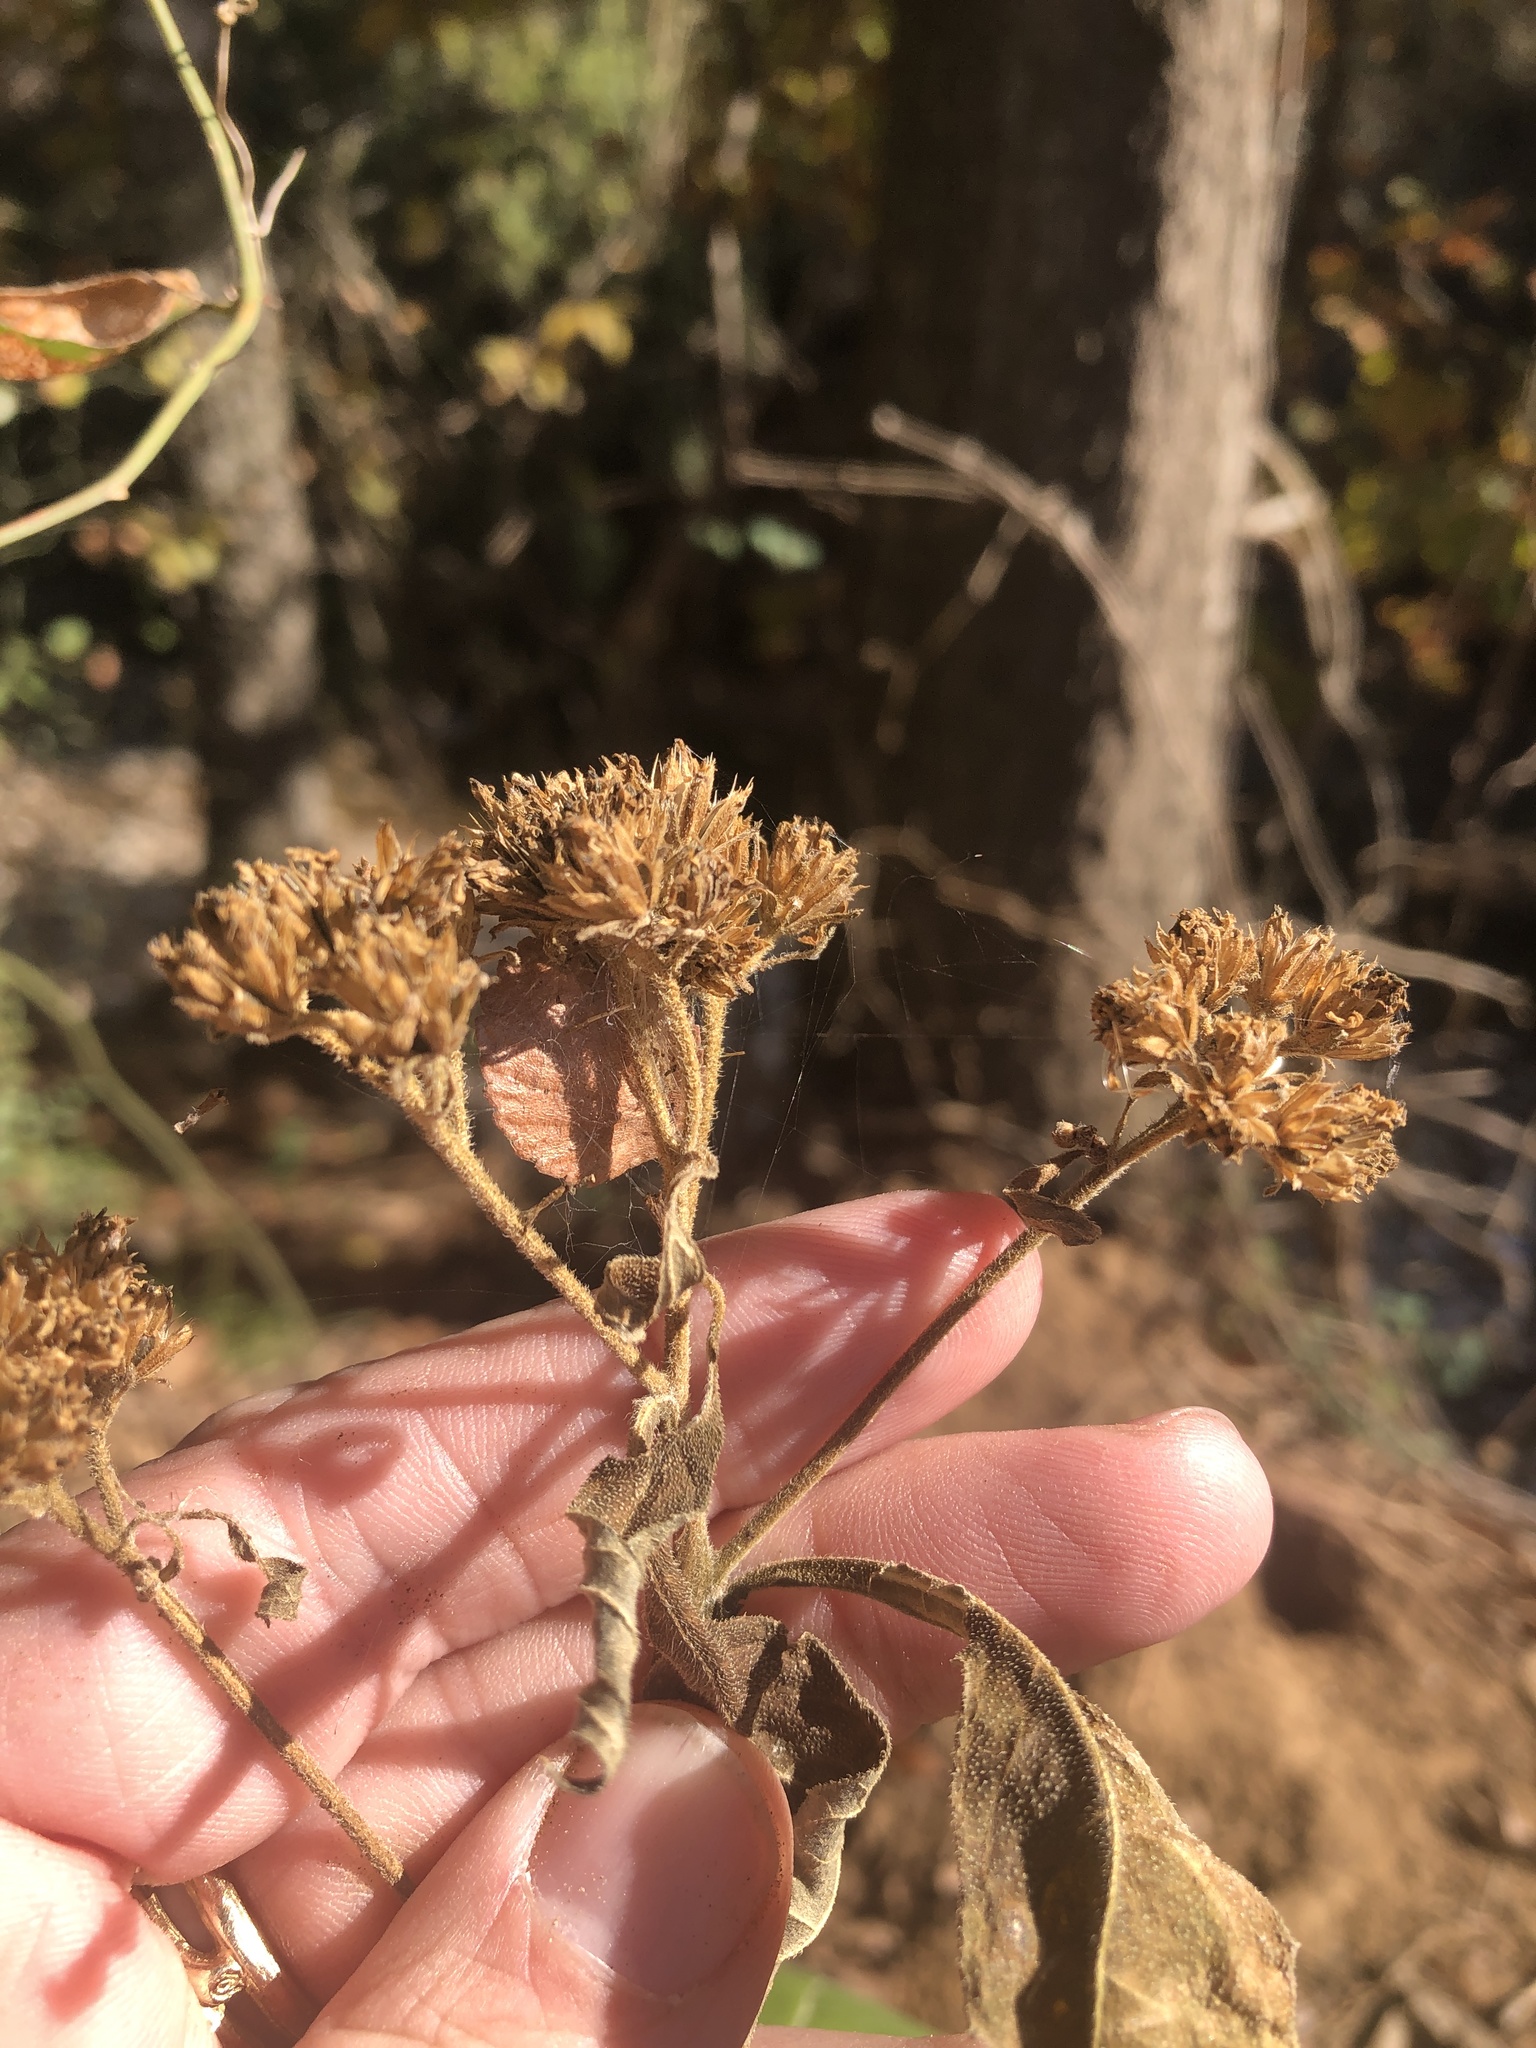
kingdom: Plantae
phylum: Tracheophyta
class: Magnoliopsida
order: Asterales
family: Asteraceae
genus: Verbesina
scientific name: Verbesina virginica
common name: Frostweed
